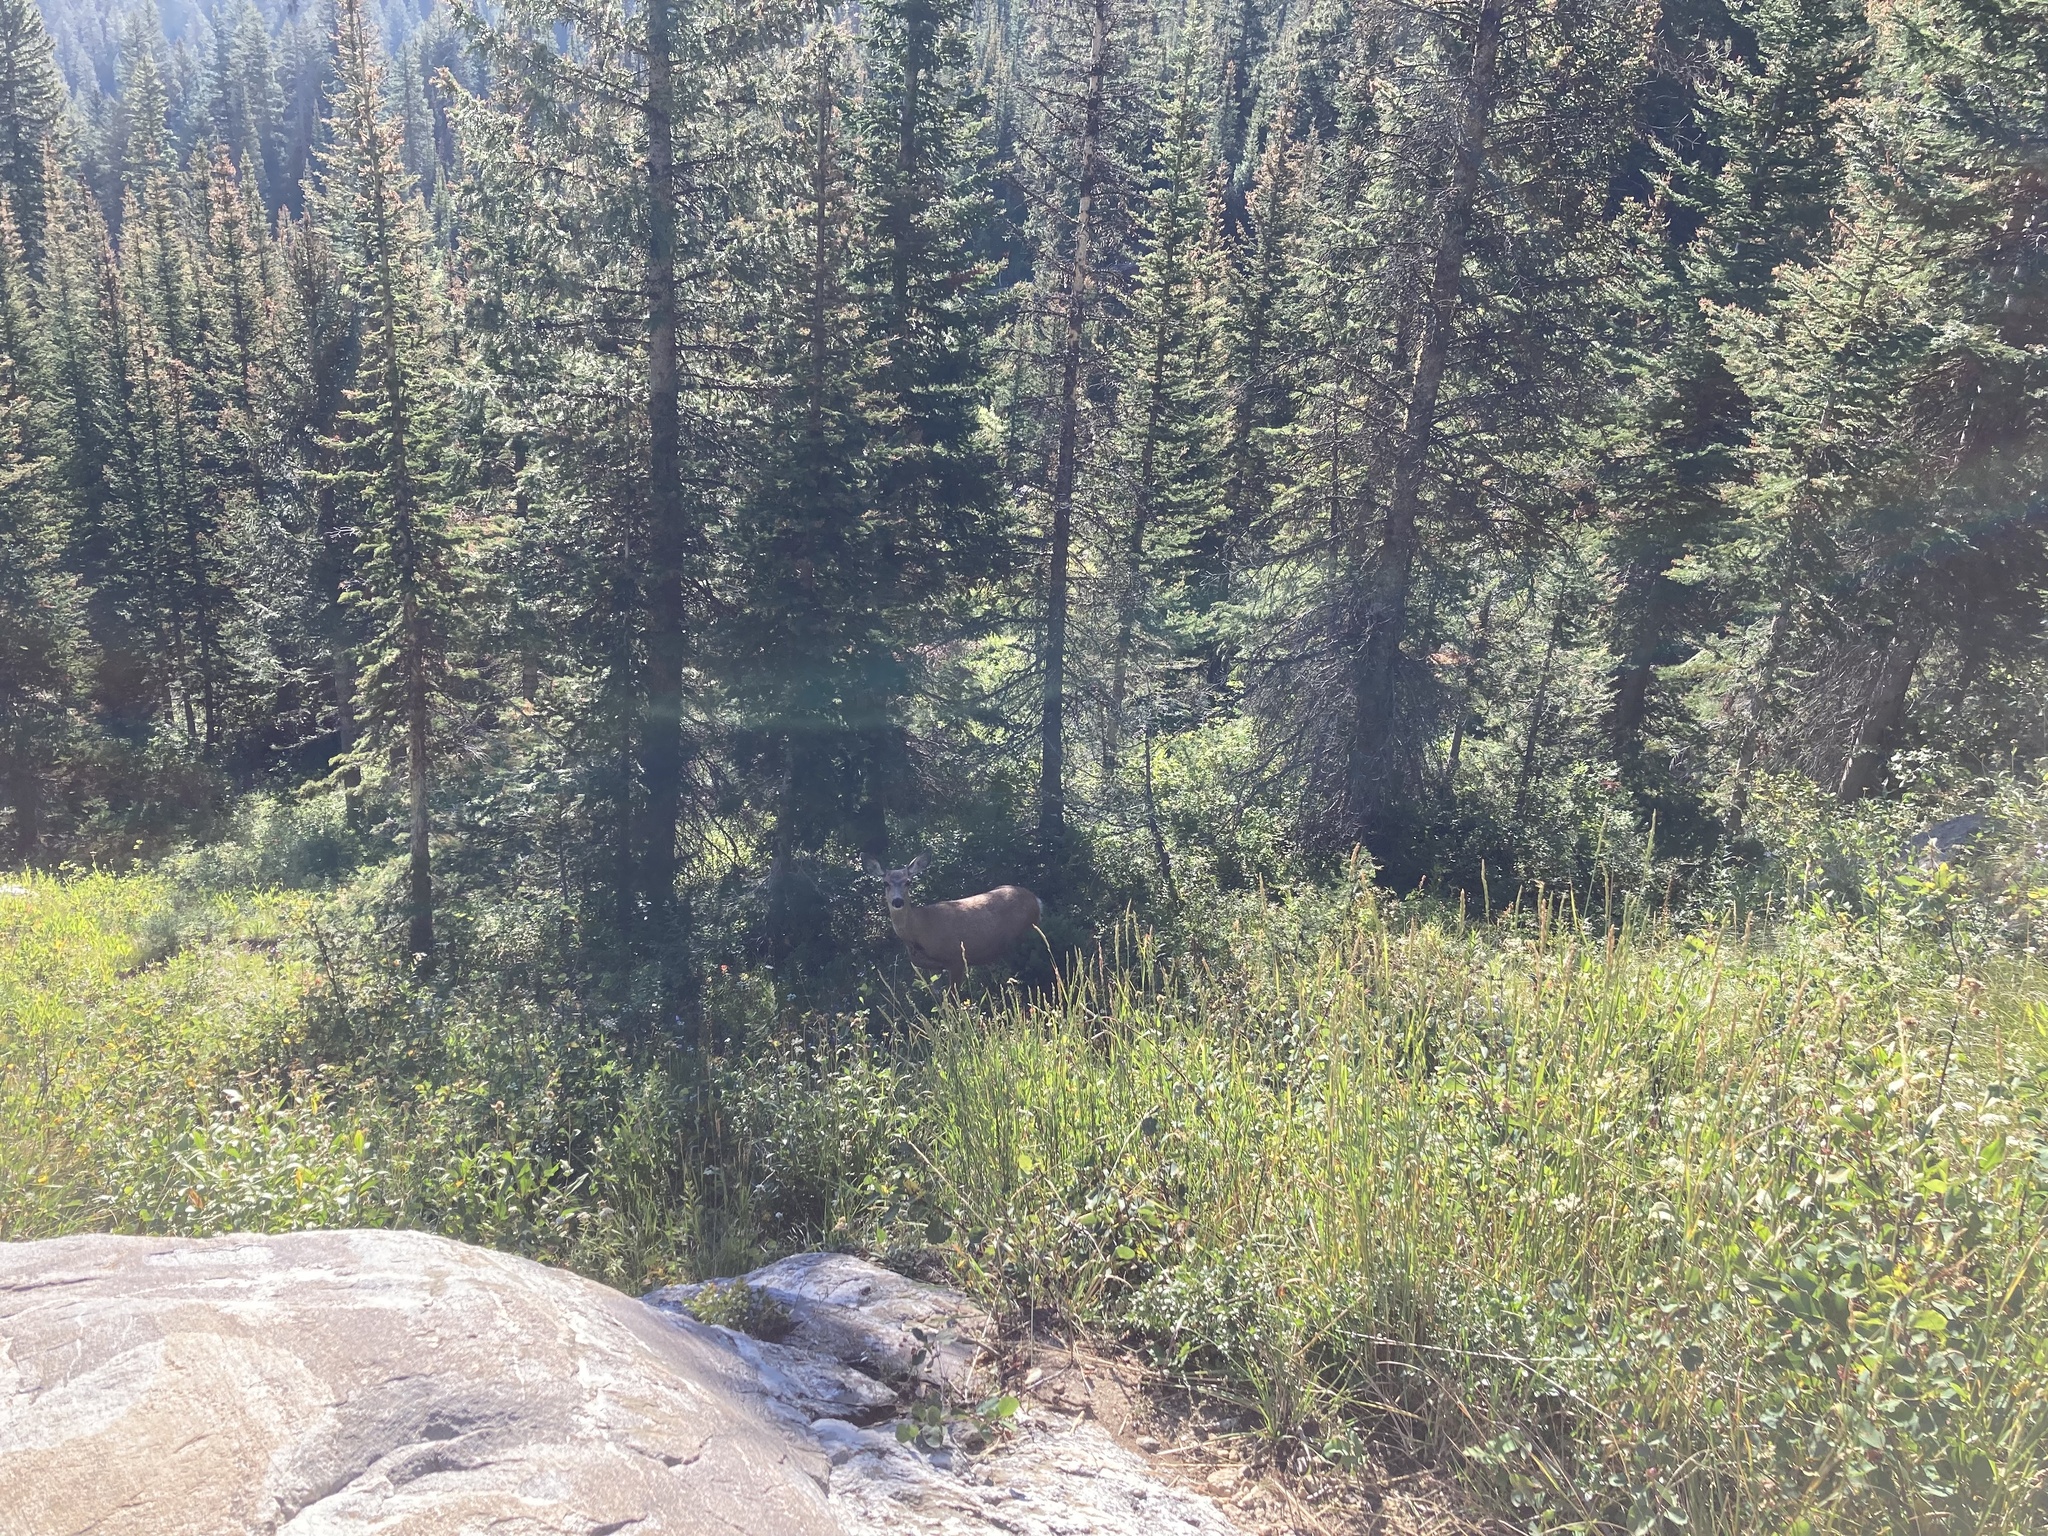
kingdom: Animalia
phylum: Chordata
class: Mammalia
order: Artiodactyla
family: Cervidae
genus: Odocoileus
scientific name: Odocoileus hemionus
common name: Mule deer
